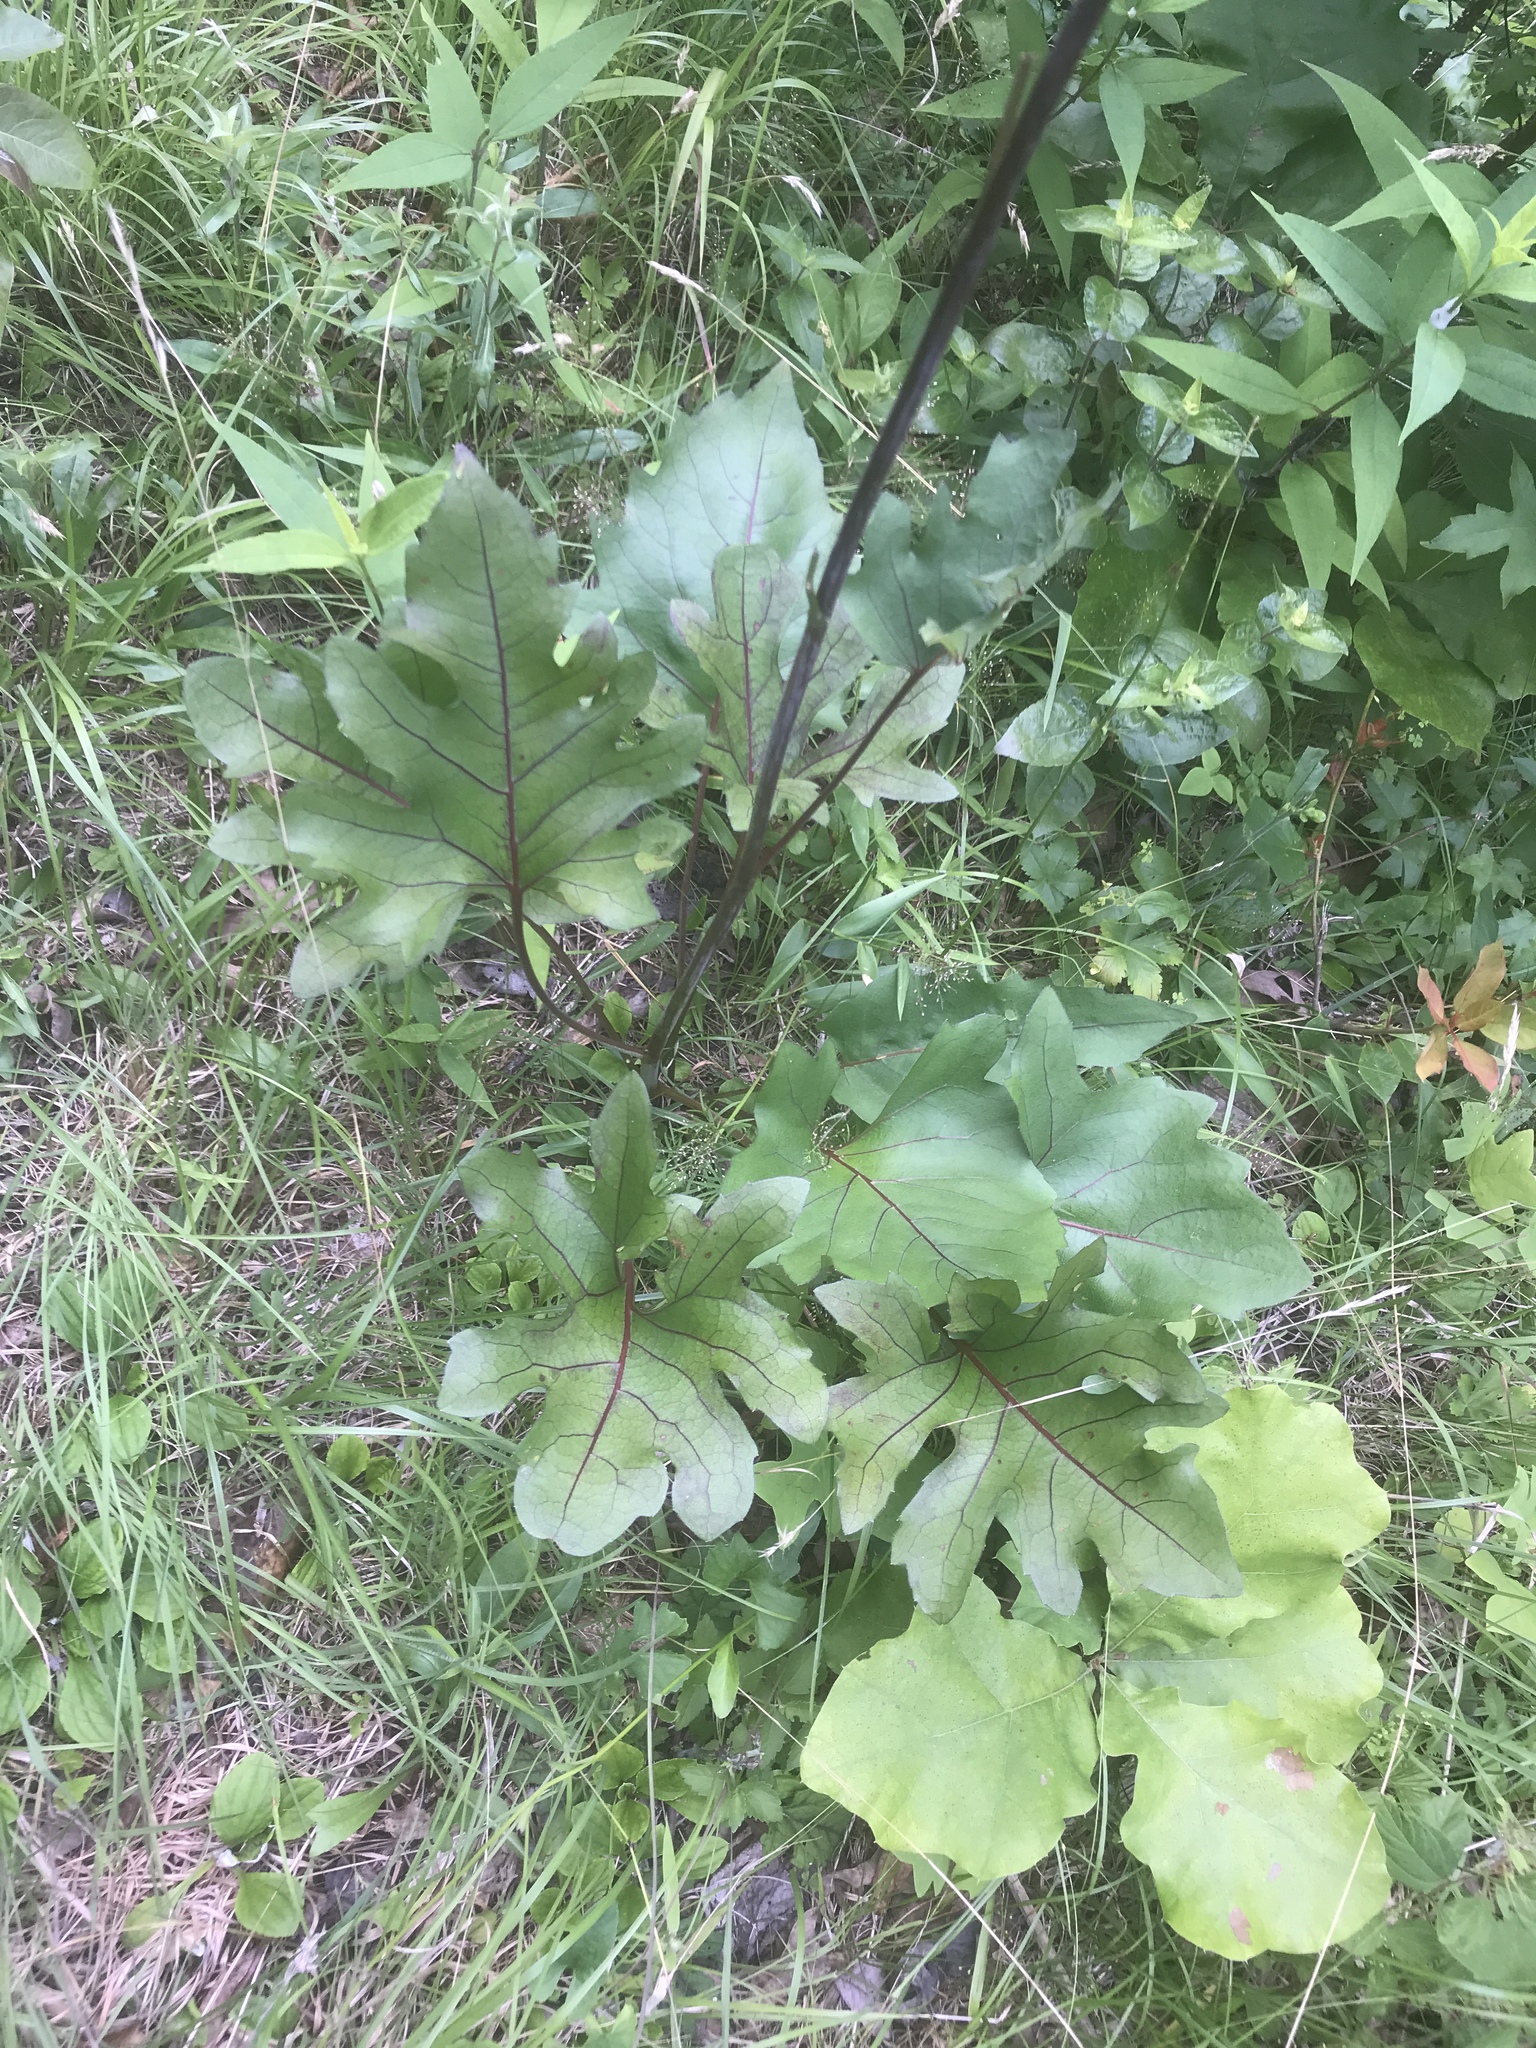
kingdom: Plantae
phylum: Tracheophyta
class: Magnoliopsida
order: Asterales
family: Asteraceae
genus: Silphium
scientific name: Silphium compositum
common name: Lesser basal-leaf rosinweed
